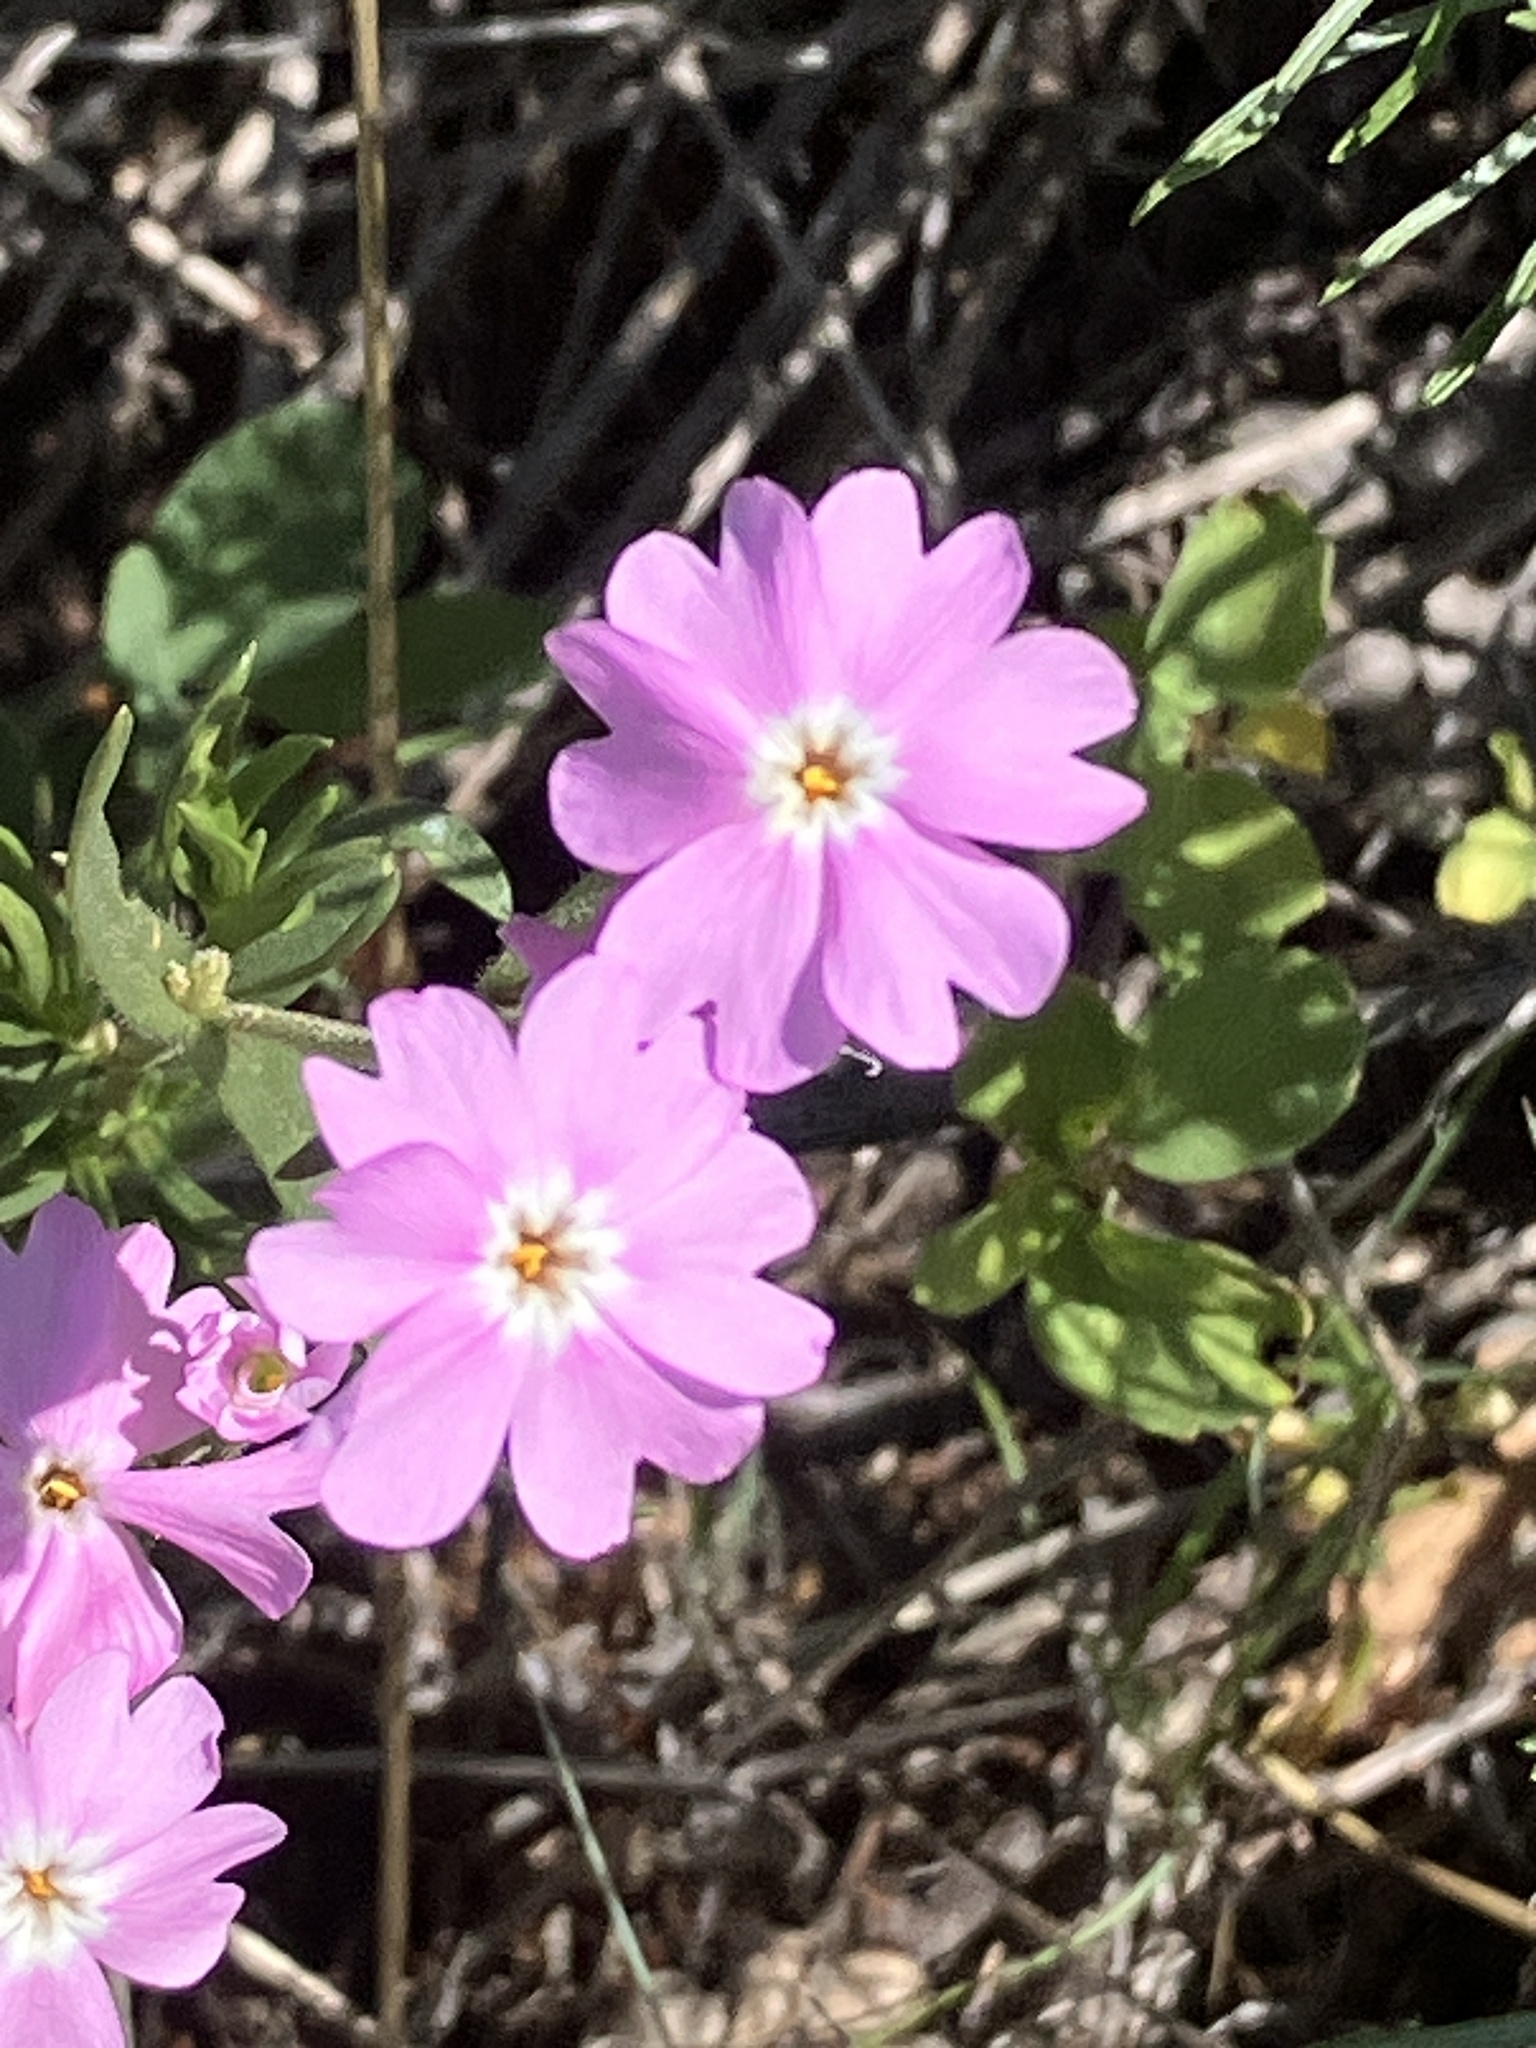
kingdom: Plantae
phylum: Tracheophyta
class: Magnoliopsida
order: Ericales
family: Polemoniaceae
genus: Phlox
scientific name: Phlox speciosa
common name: Bush phlox
